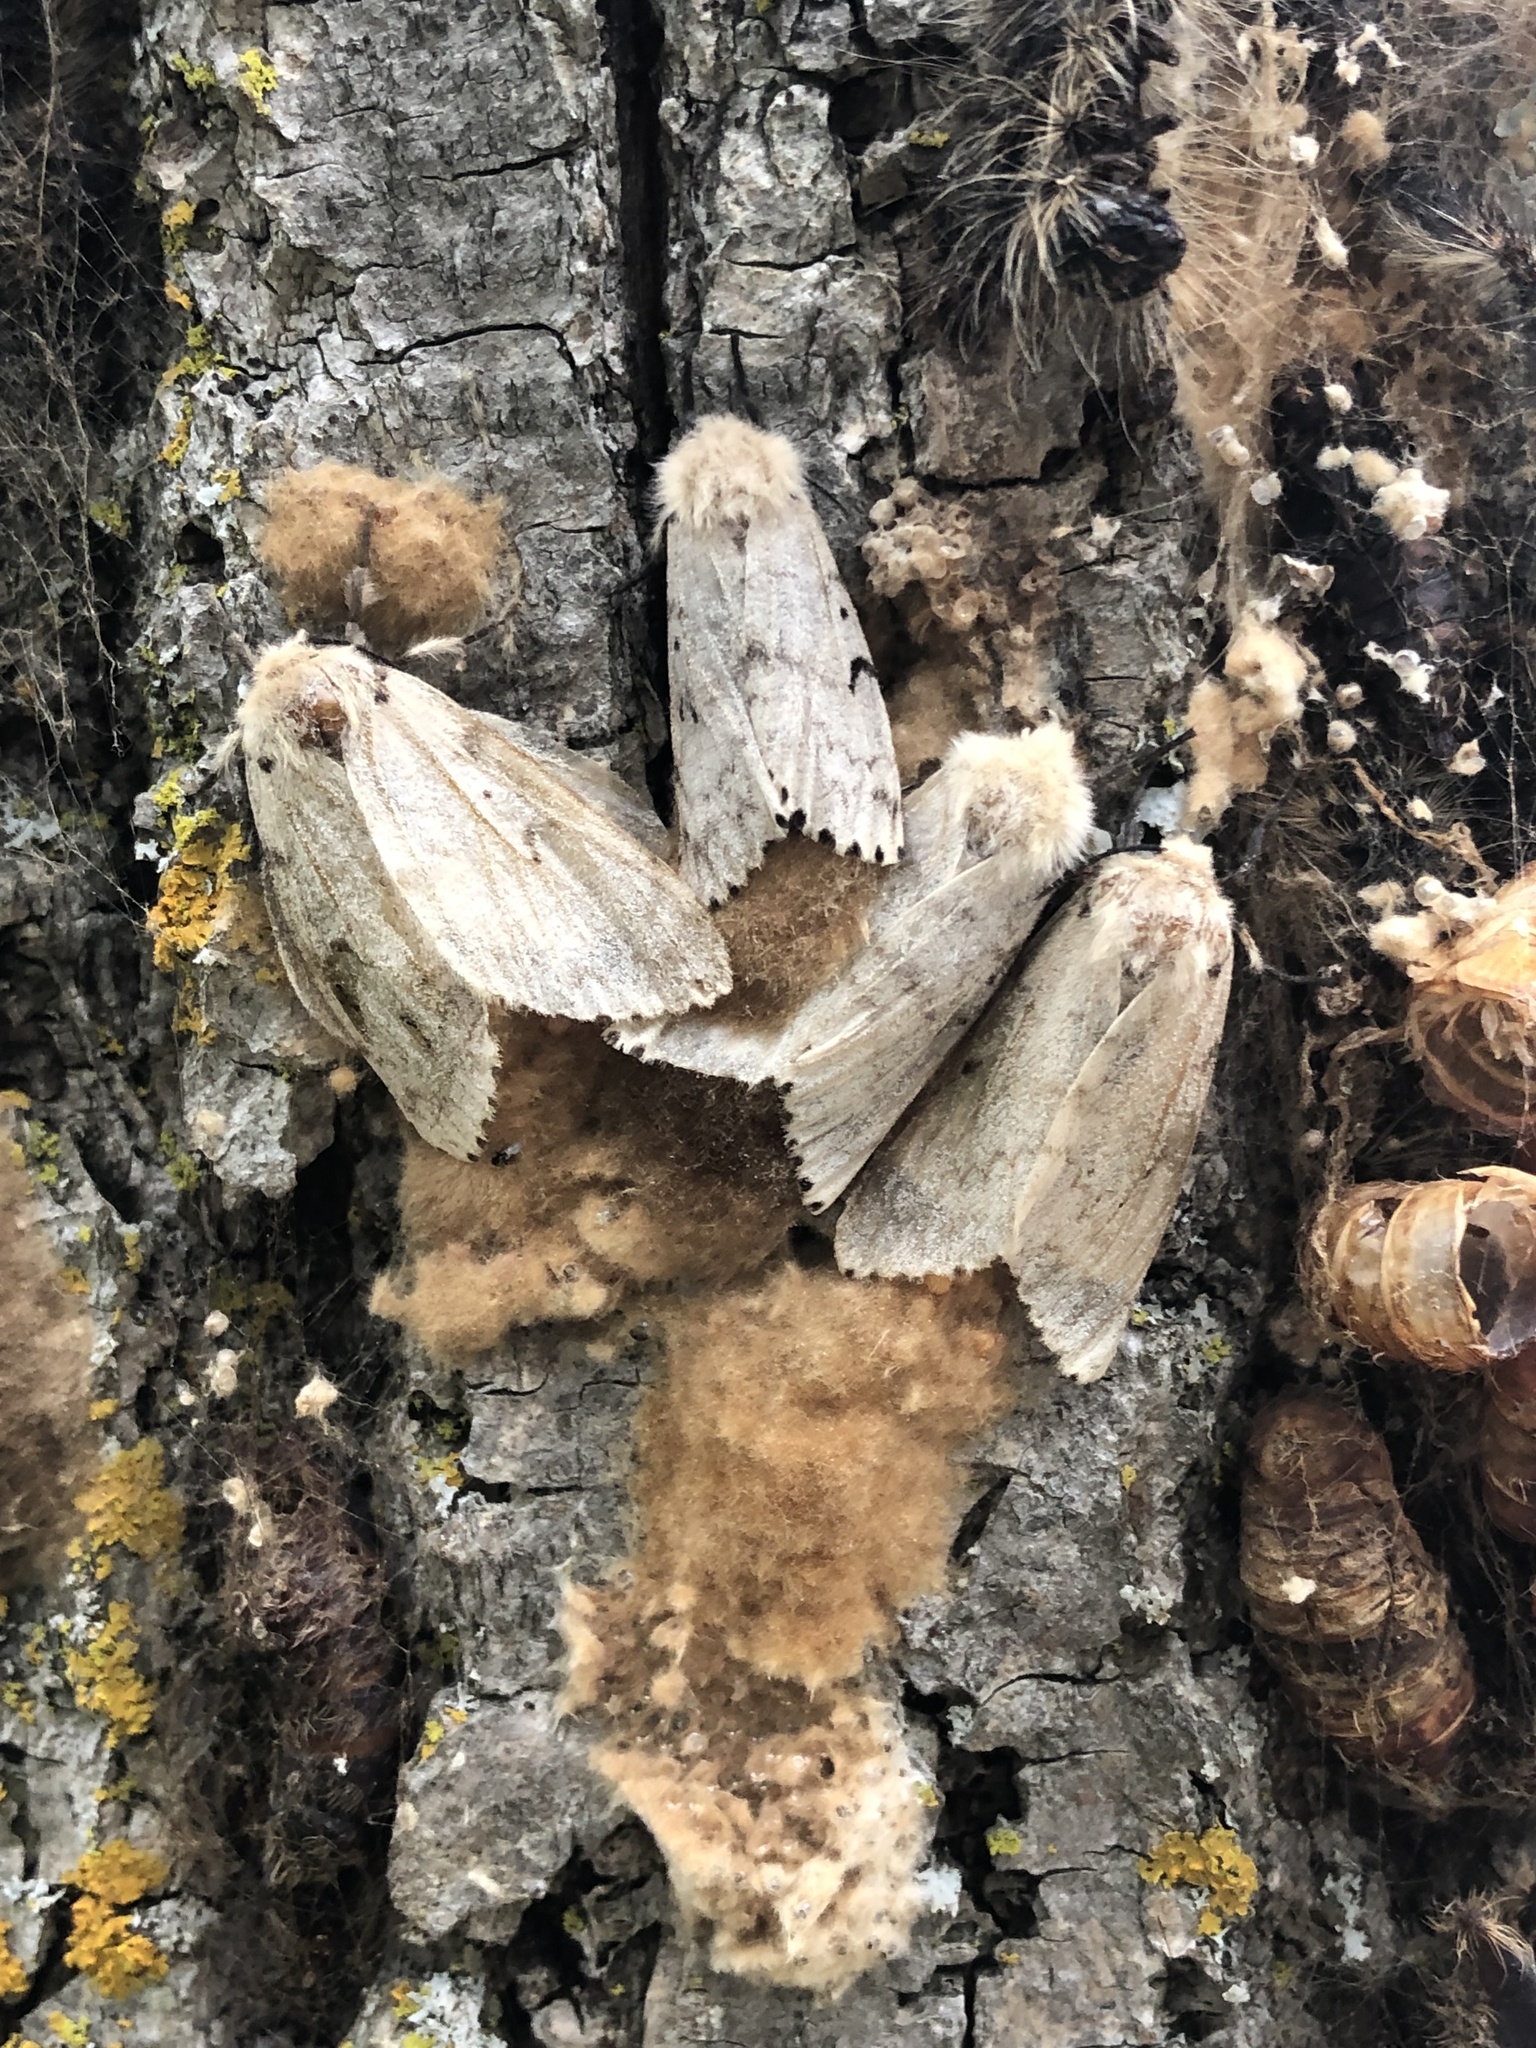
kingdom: Animalia
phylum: Arthropoda
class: Insecta
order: Lepidoptera
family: Erebidae
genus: Lymantria
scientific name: Lymantria dispar
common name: Gypsy moth
